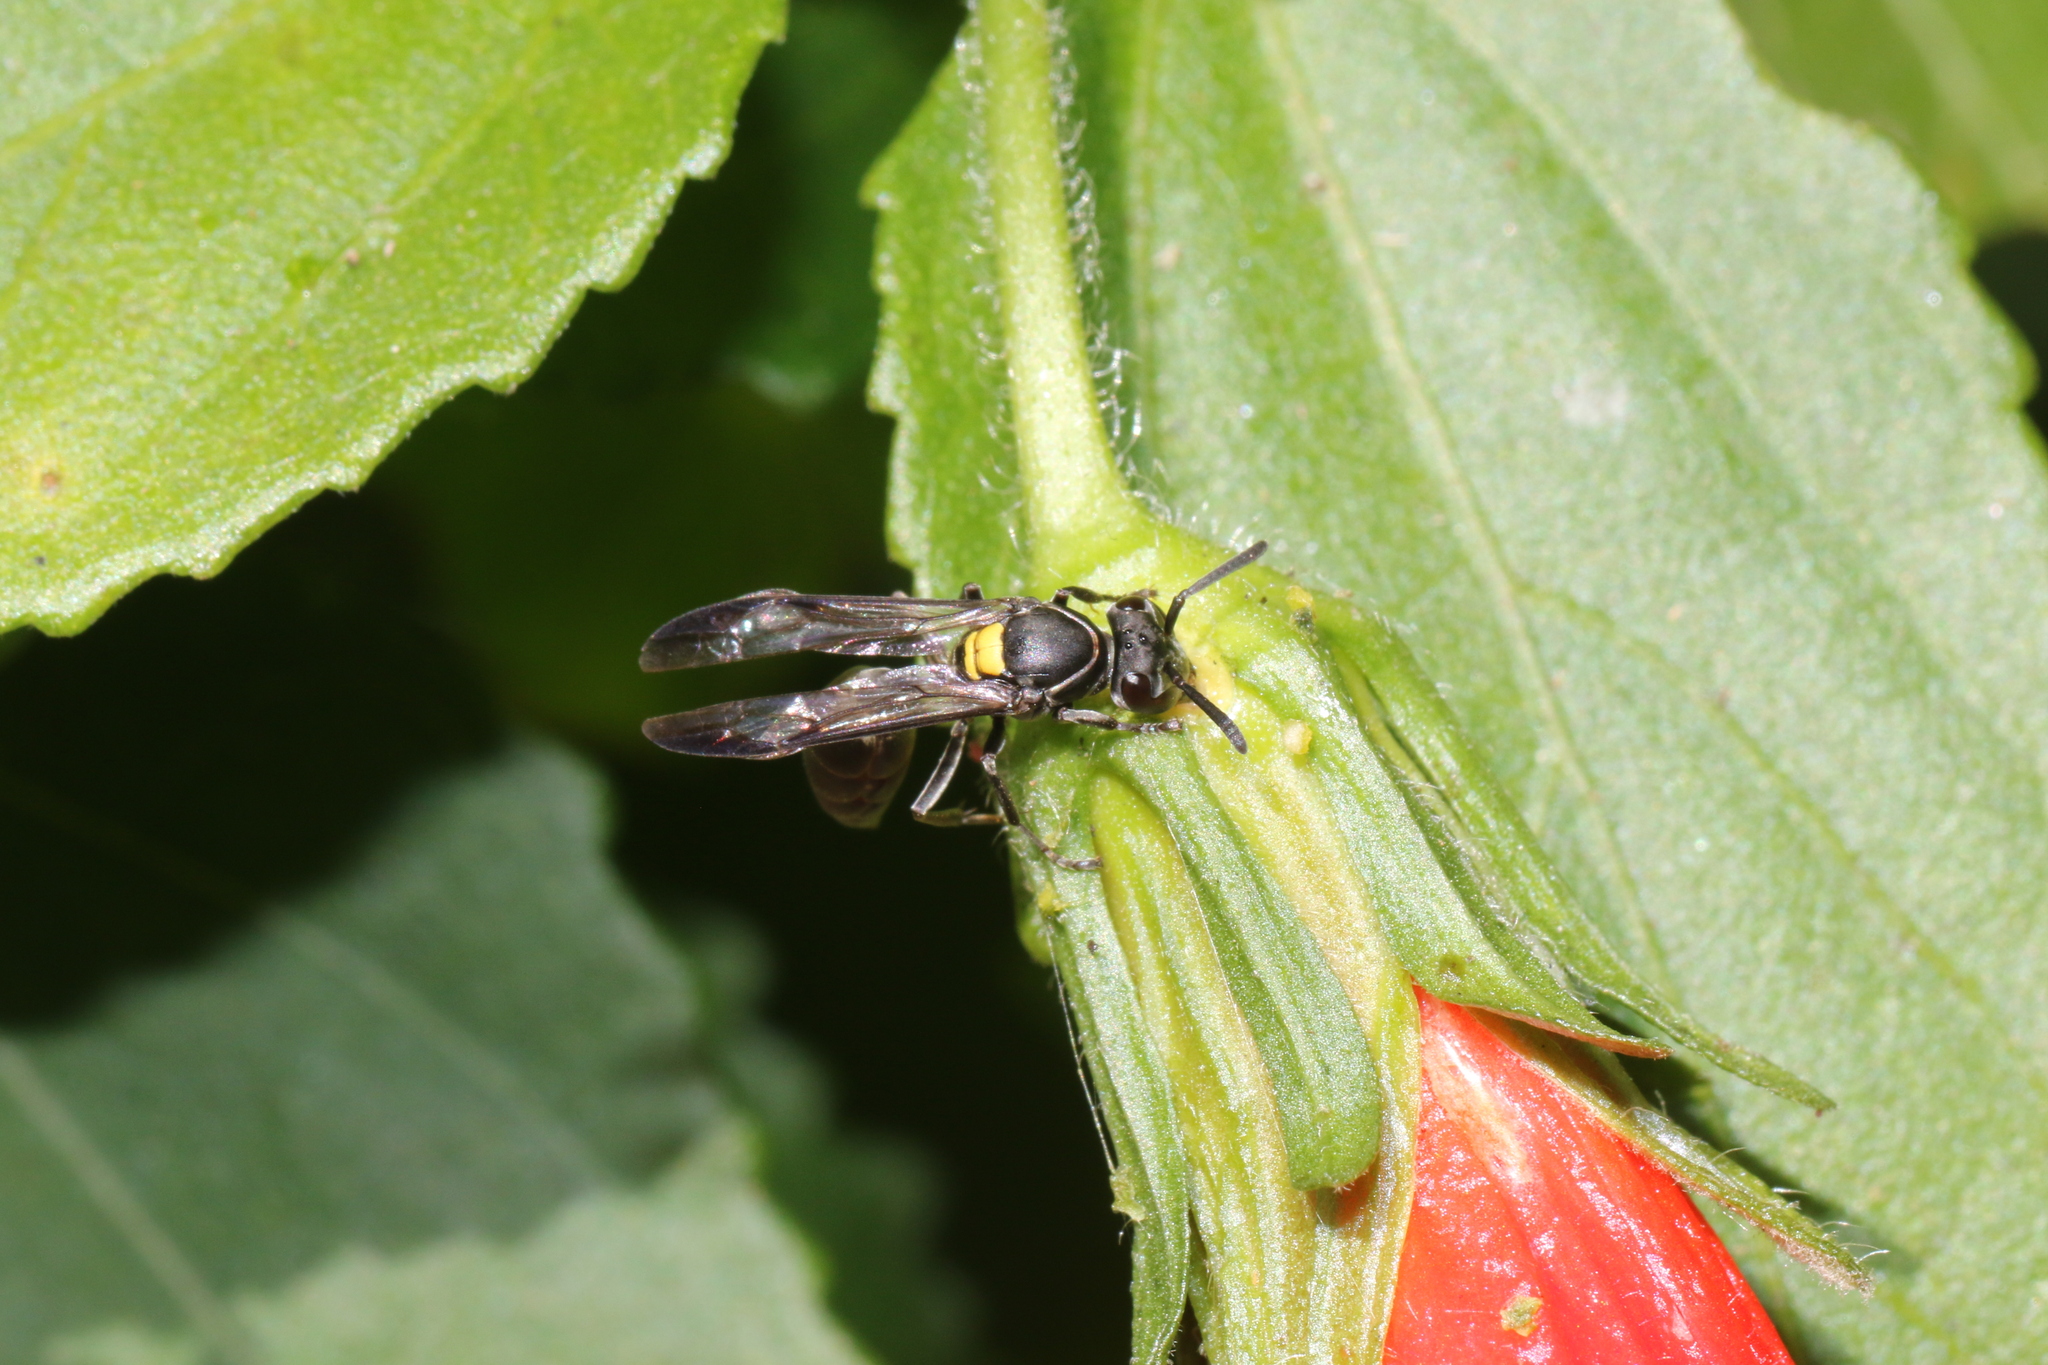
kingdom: Animalia
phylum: Arthropoda
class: Insecta
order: Hymenoptera
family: Eumenidae
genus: Polybia
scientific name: Polybia paulista
